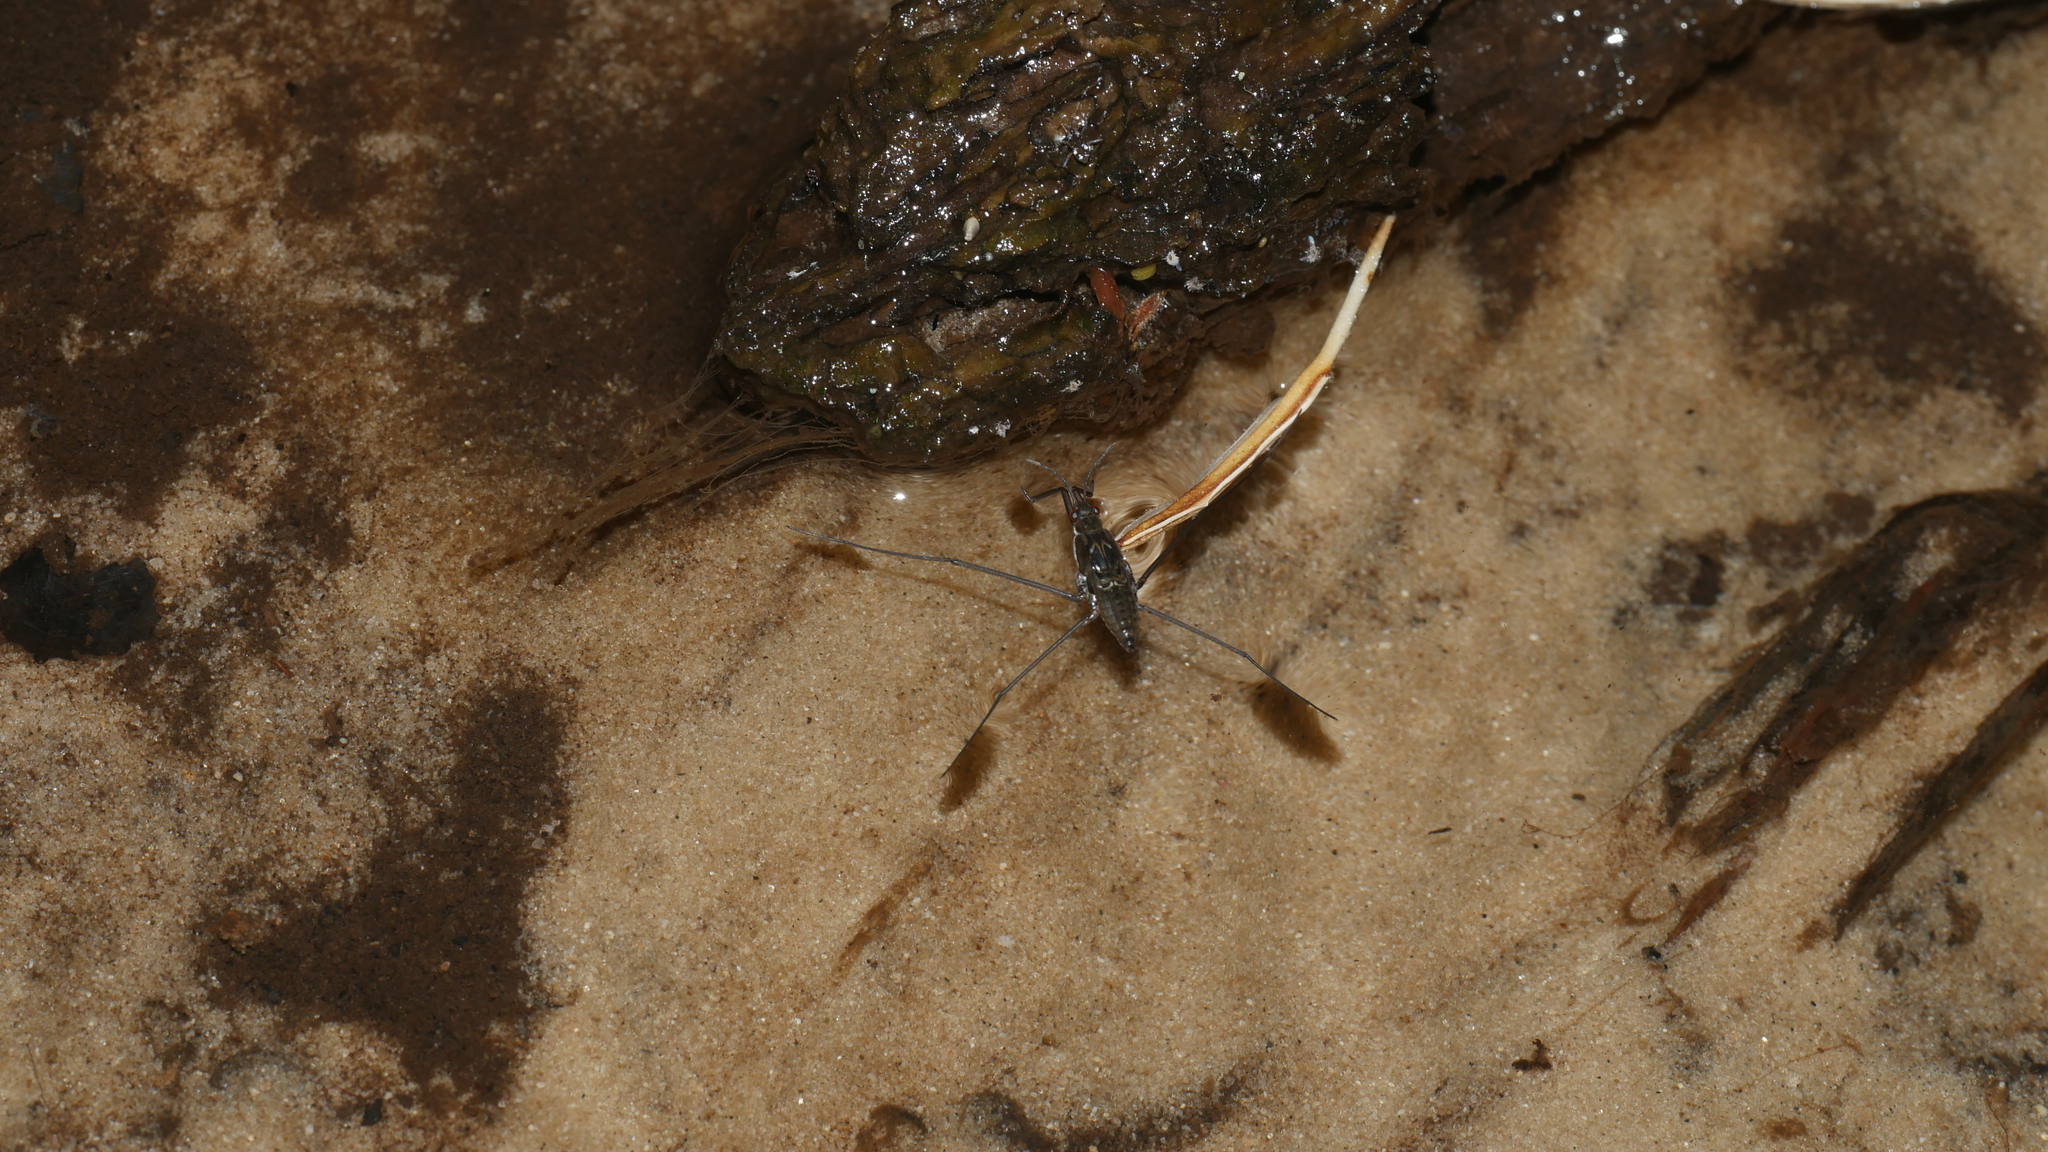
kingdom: Animalia
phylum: Arthropoda
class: Insecta
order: Hemiptera
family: Gerridae
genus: Aquarius
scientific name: Aquarius
